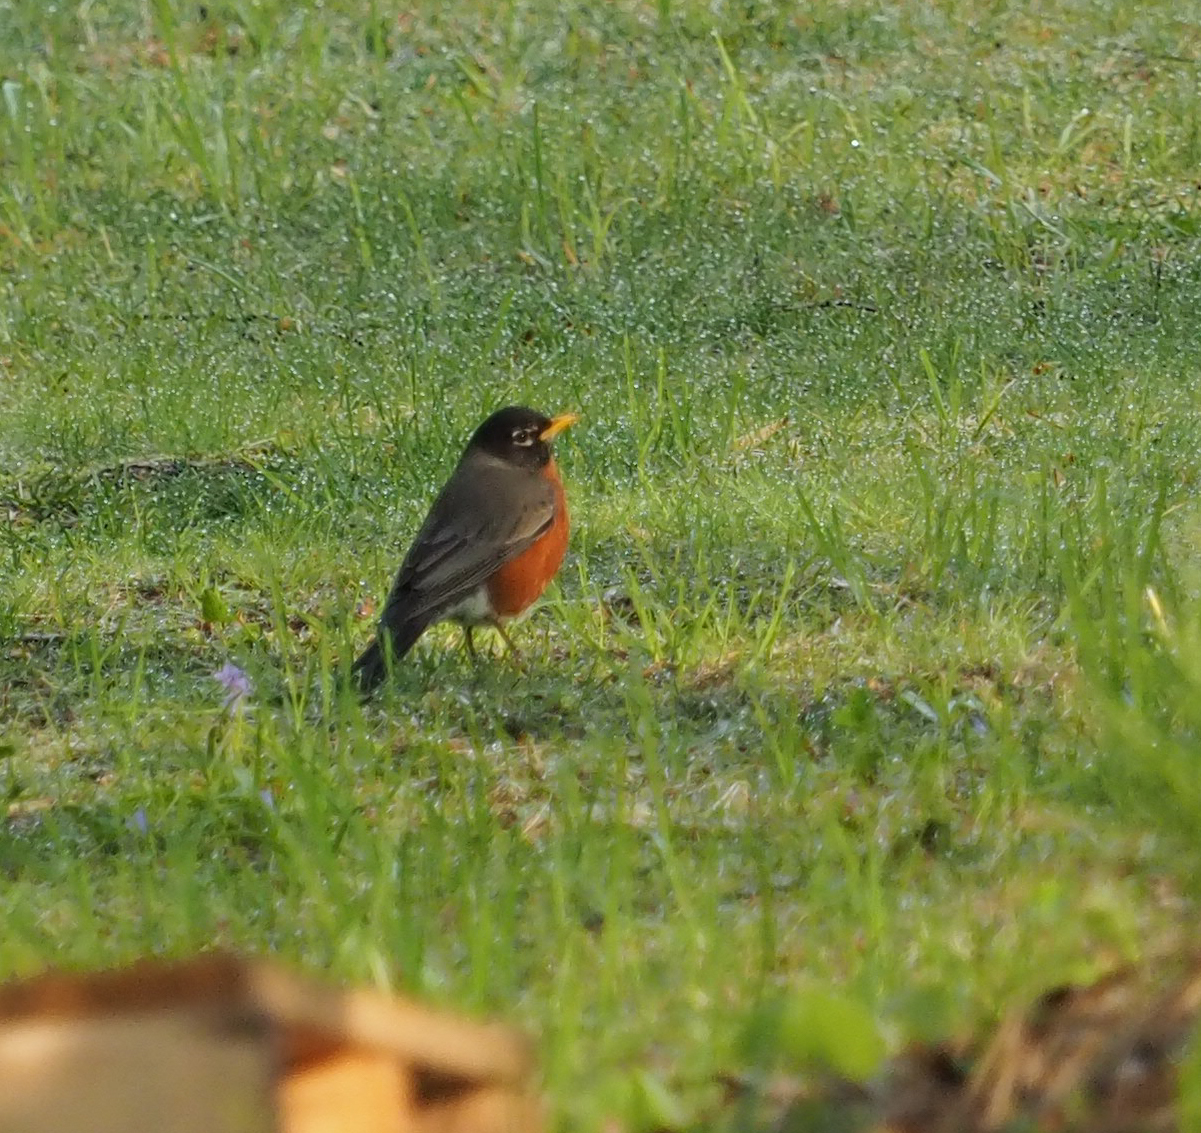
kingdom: Animalia
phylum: Chordata
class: Aves
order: Passeriformes
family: Turdidae
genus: Turdus
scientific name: Turdus migratorius
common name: American robin
